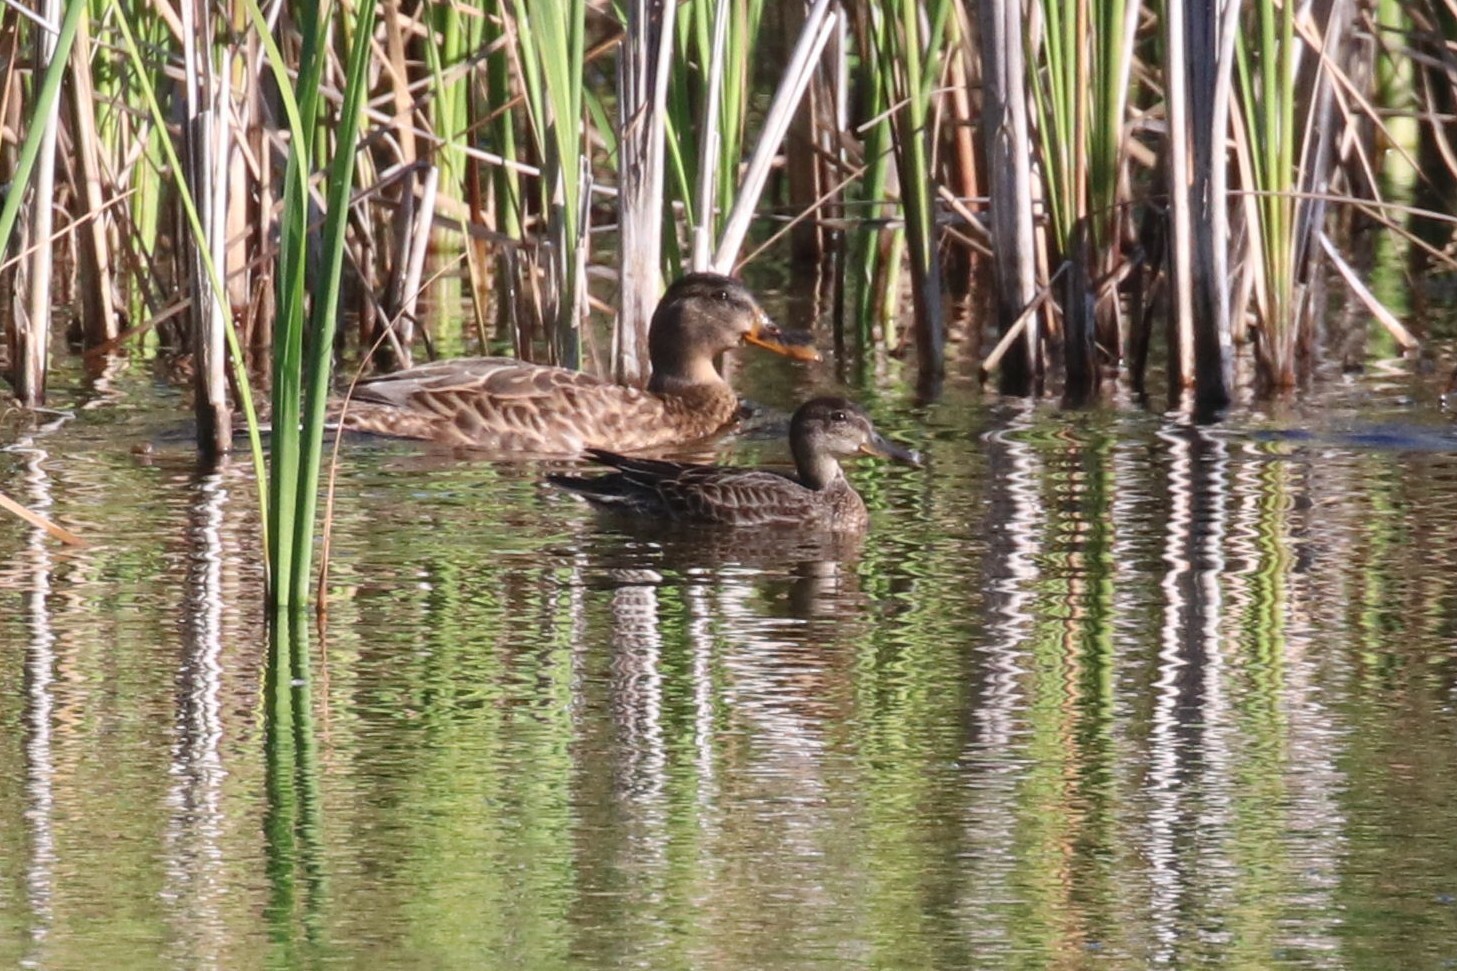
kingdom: Animalia
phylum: Chordata
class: Aves
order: Anseriformes
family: Anatidae
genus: Anas
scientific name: Anas crecca
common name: Eurasian teal
